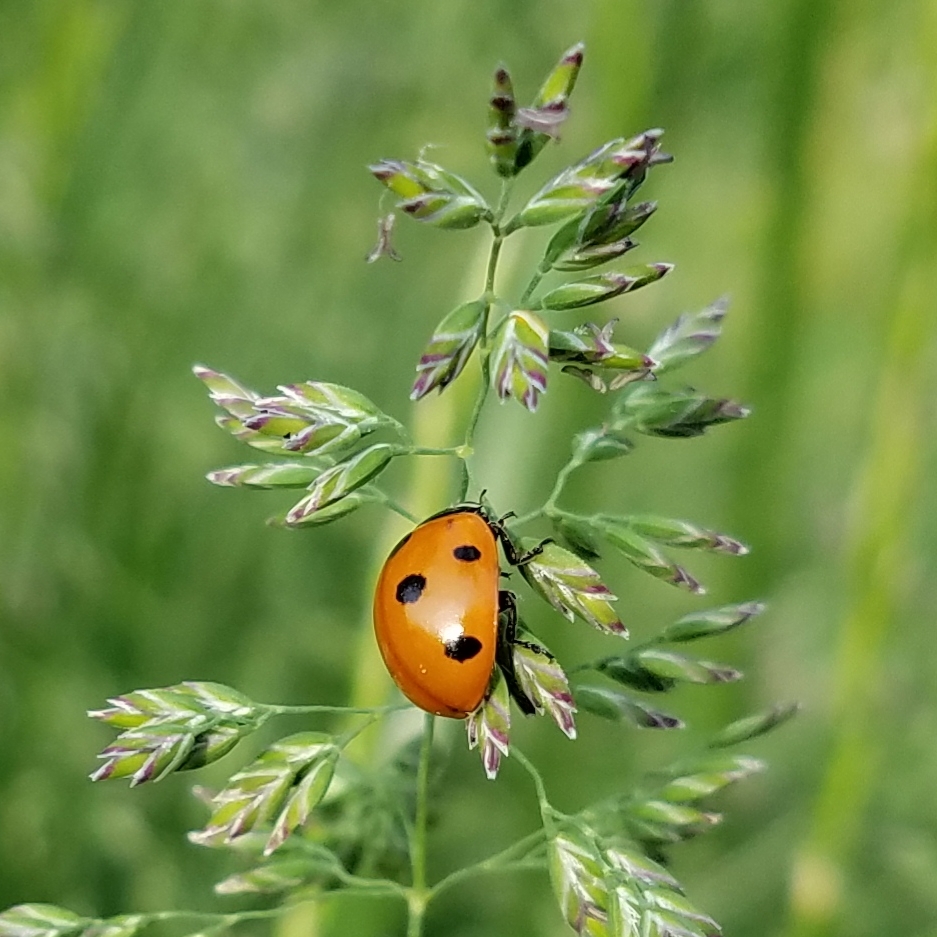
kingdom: Animalia
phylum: Arthropoda
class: Insecta
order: Coleoptera
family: Coccinellidae
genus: Coccinella
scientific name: Coccinella septempunctata
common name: Sevenspotted lady beetle
